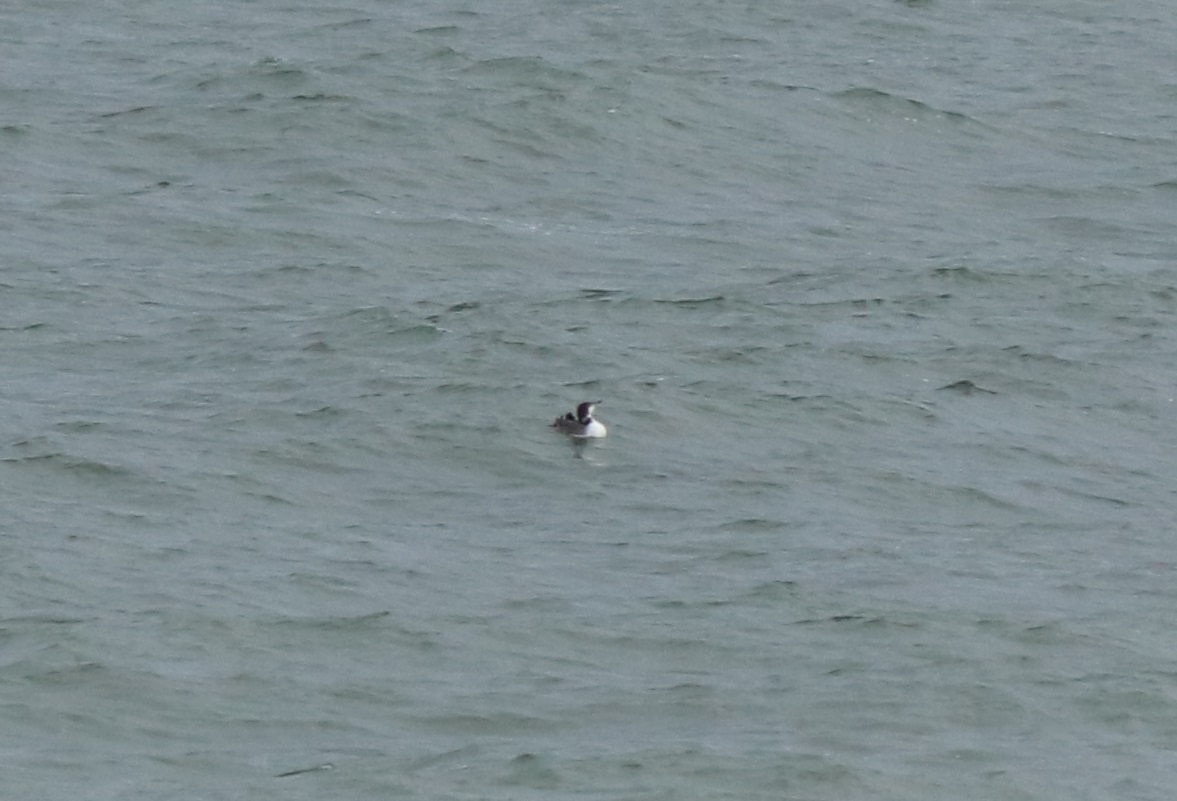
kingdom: Animalia
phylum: Chordata
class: Aves
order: Gaviiformes
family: Gaviidae
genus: Gavia
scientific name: Gavia immer
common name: Common loon
